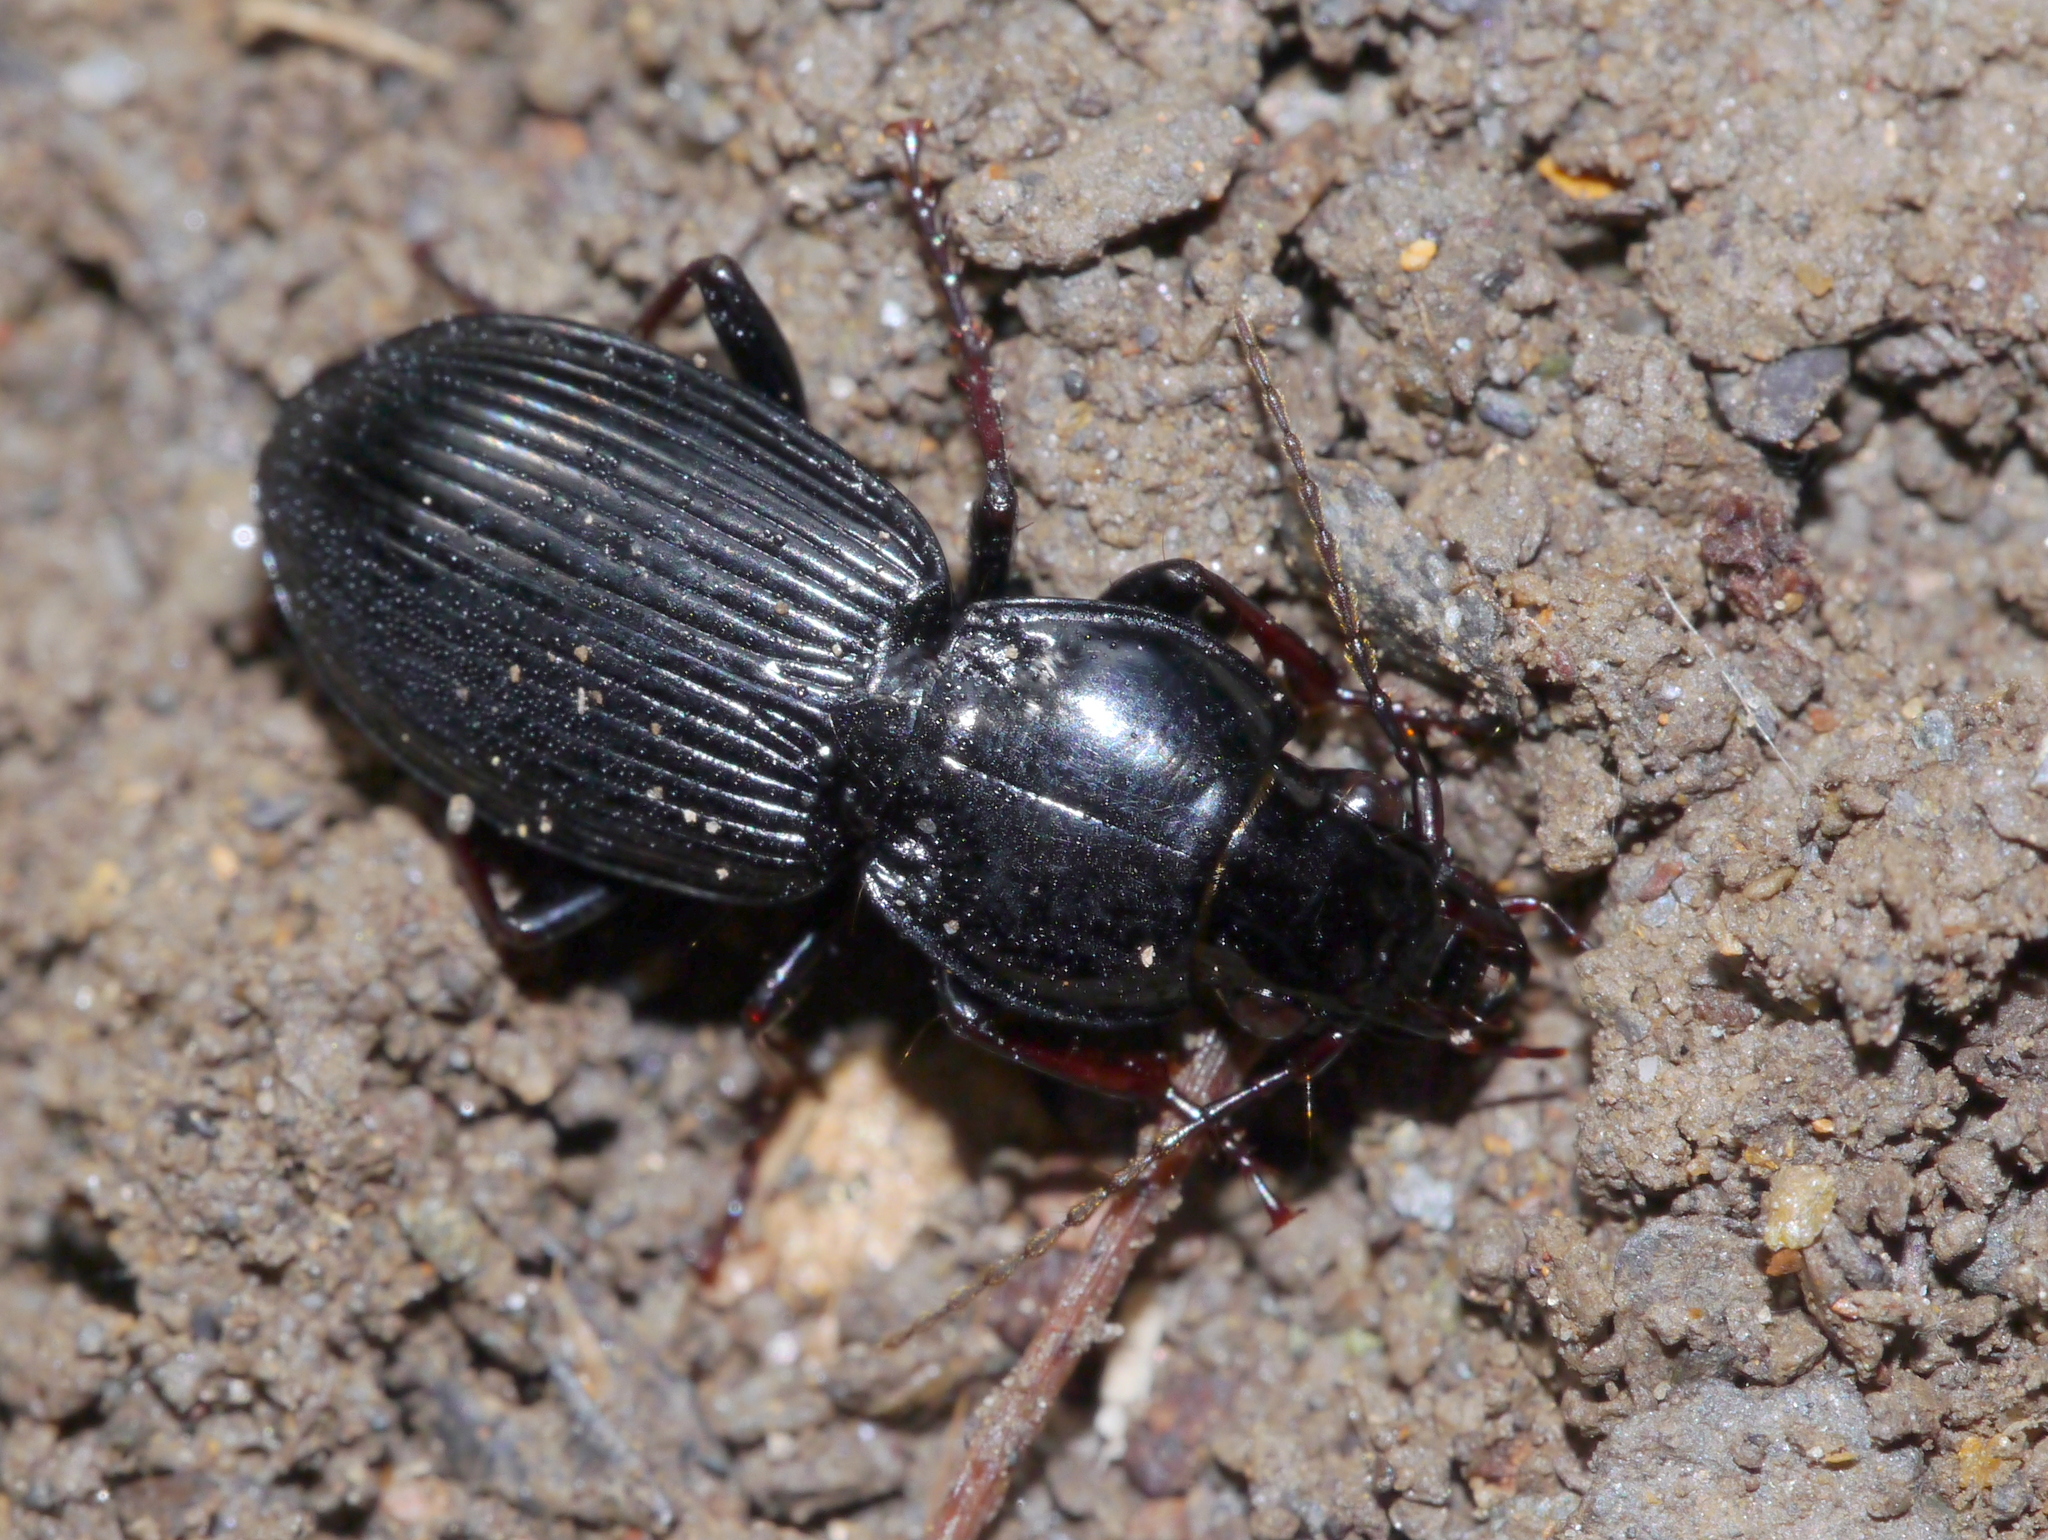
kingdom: Animalia
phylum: Arthropoda
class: Insecta
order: Coleoptera
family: Carabidae
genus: Pterostichus
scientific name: Pterostichus stygicus
